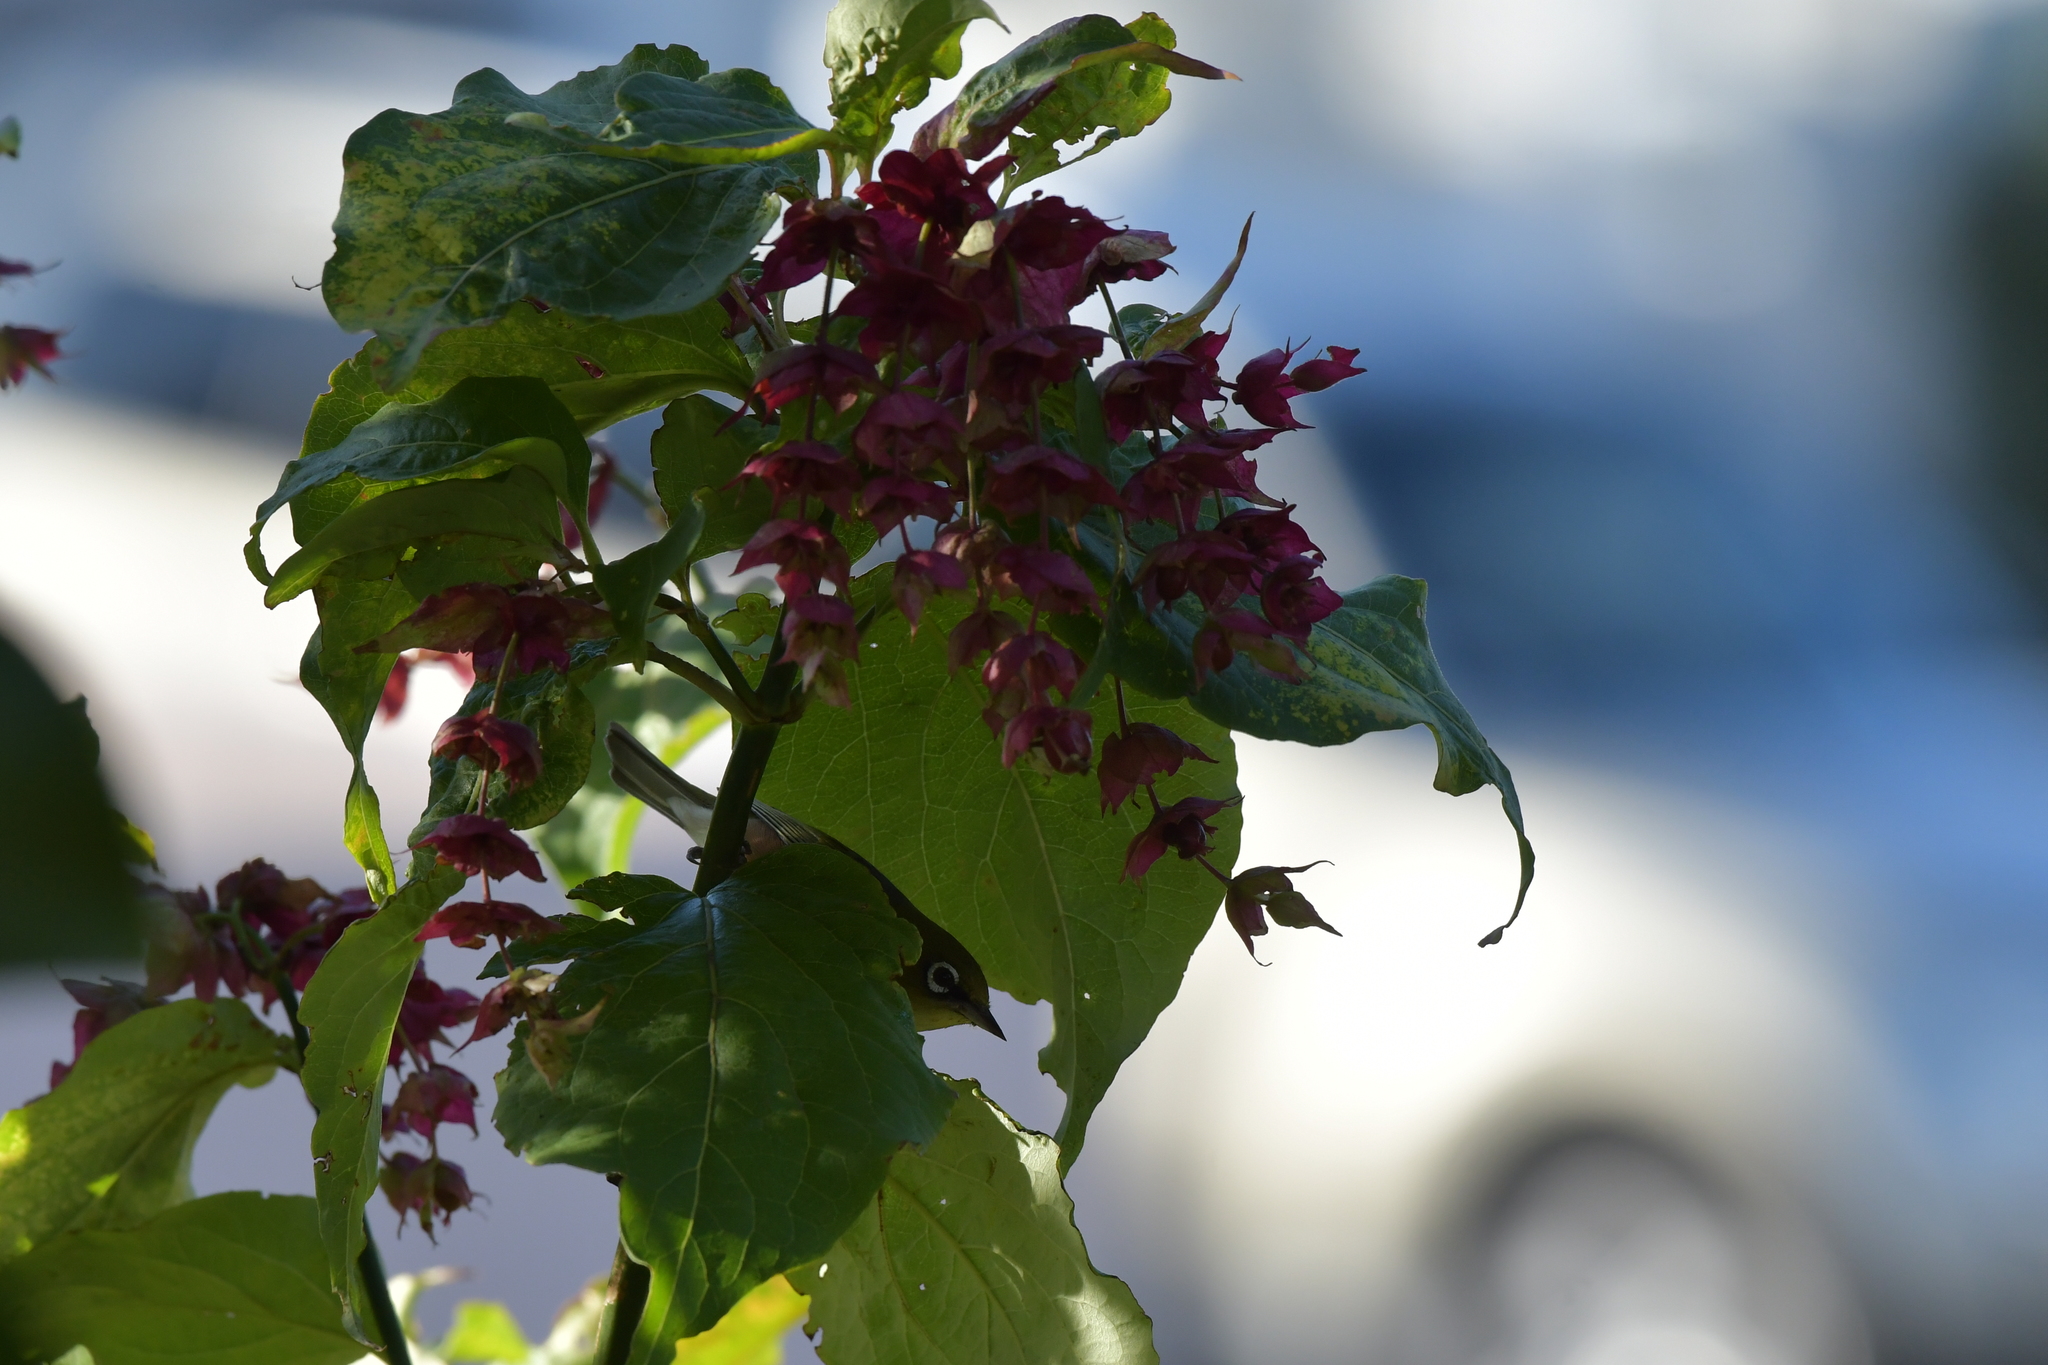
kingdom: Animalia
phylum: Chordata
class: Aves
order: Passeriformes
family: Zosteropidae
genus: Zosterops
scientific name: Zosterops lateralis
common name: Silvereye
